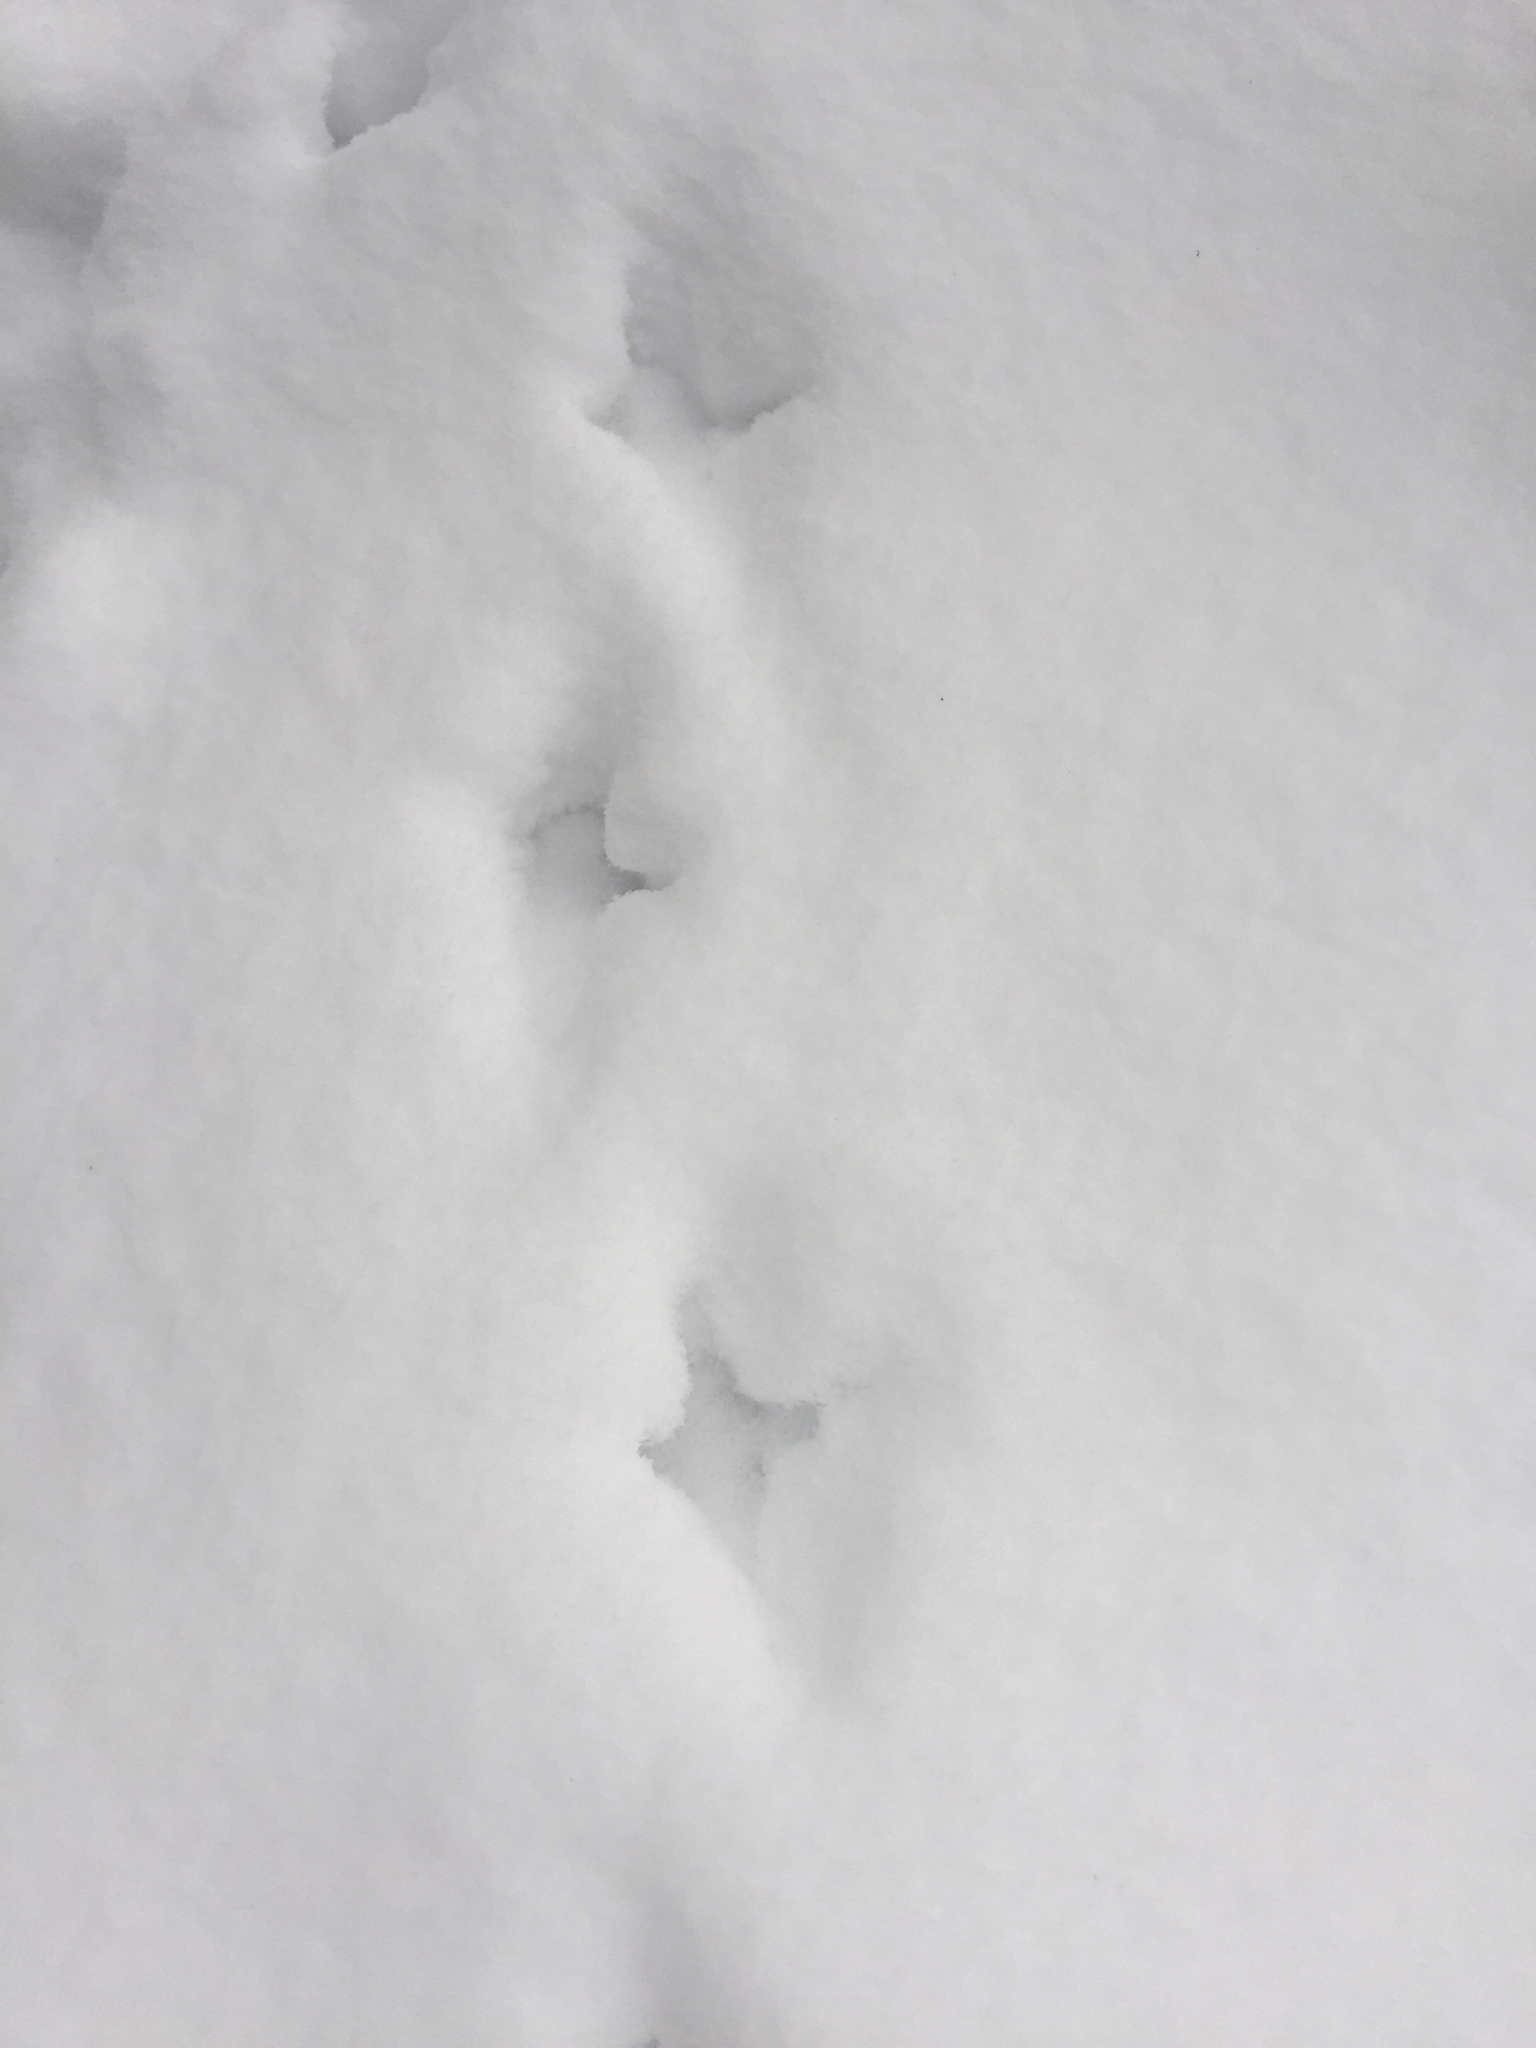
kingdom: Animalia
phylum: Chordata
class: Aves
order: Galliformes
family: Phasianidae
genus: Bonasa
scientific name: Bonasa umbellus
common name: Ruffed grouse
